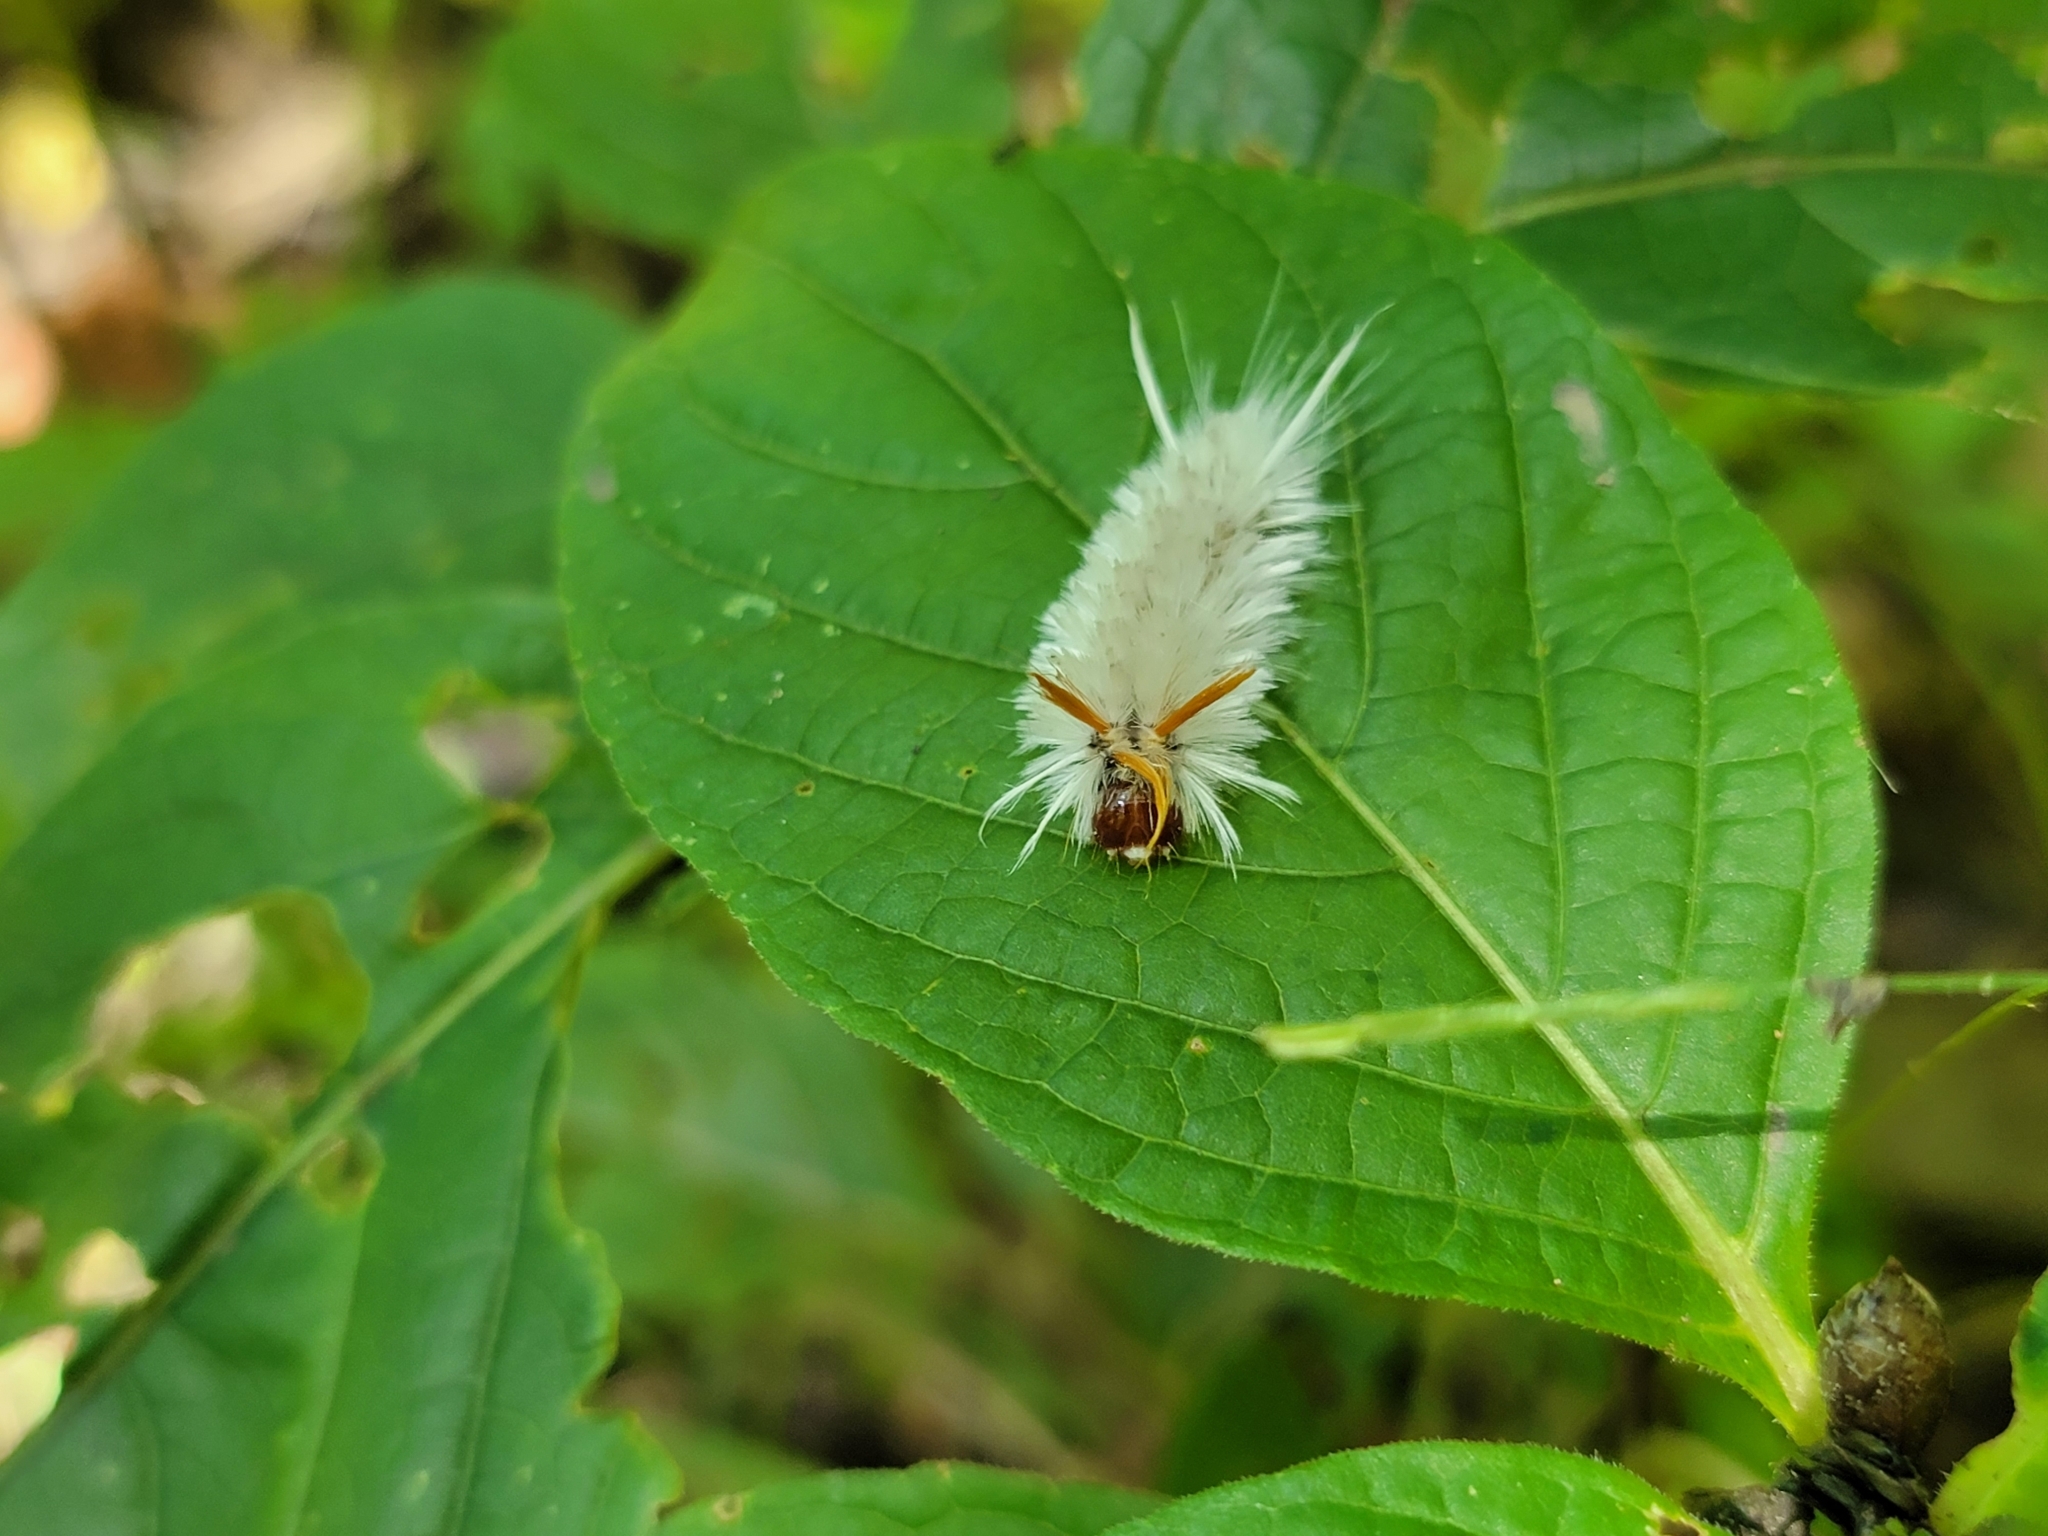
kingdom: Animalia
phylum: Arthropoda
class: Insecta
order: Lepidoptera
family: Erebidae
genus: Halysidota
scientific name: Halysidota harrisii
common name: Sycamore tussock moth
